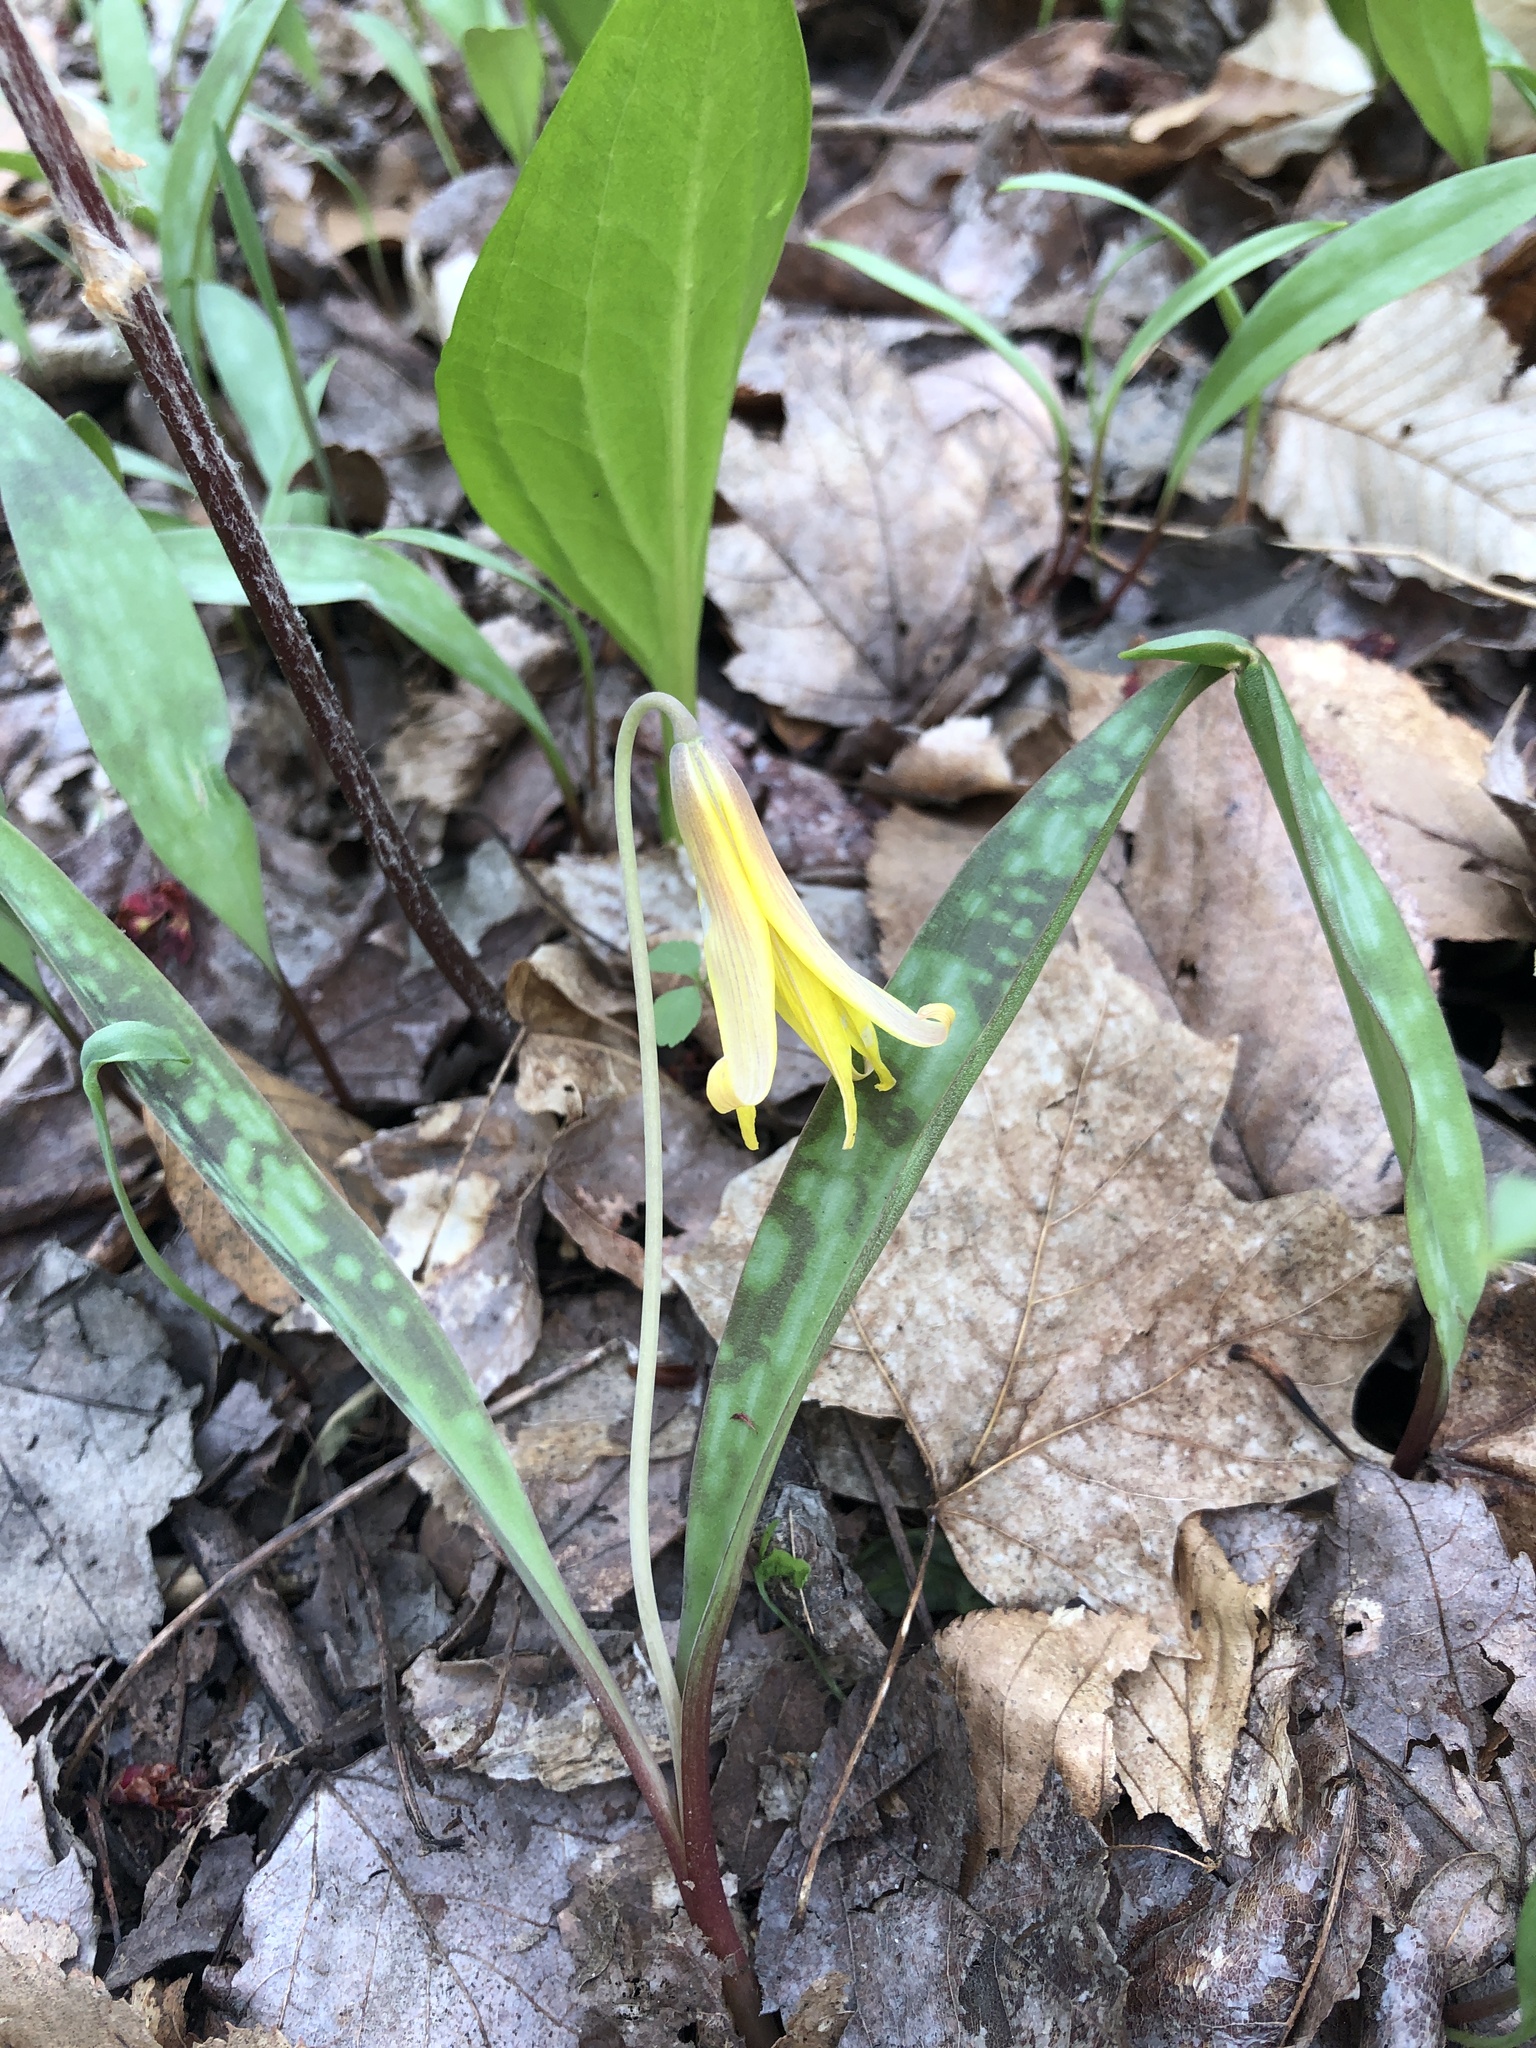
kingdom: Plantae
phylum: Tracheophyta
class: Liliopsida
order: Liliales
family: Liliaceae
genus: Erythronium
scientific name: Erythronium americanum
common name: Yellow adder's-tongue
